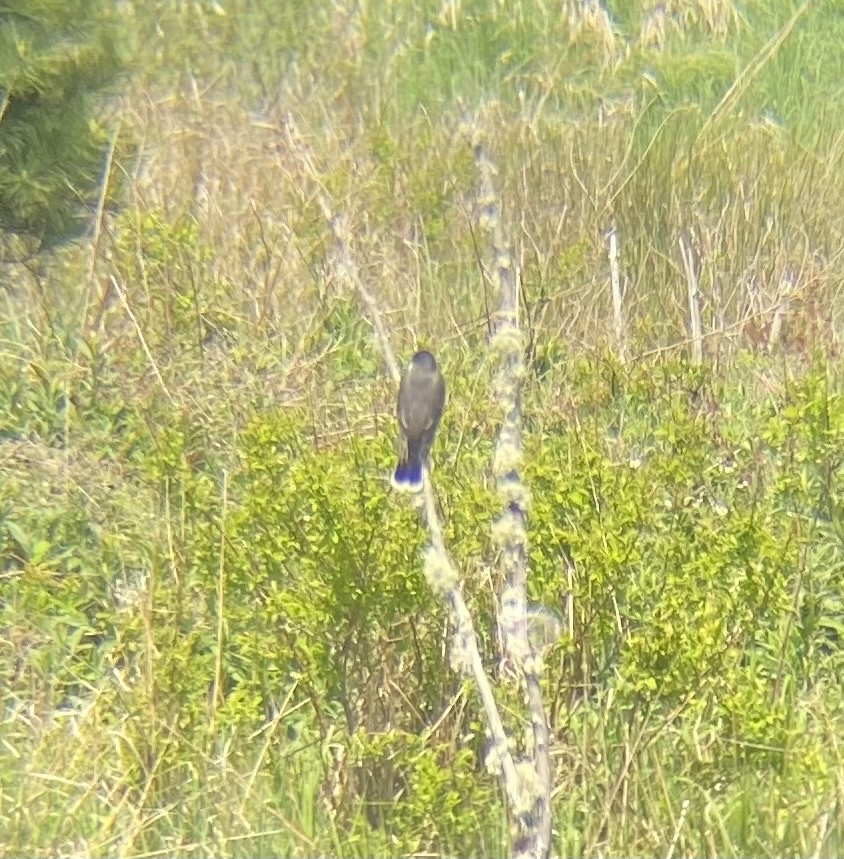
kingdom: Animalia
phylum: Chordata
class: Aves
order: Passeriformes
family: Tyrannidae
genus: Tyrannus
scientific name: Tyrannus tyrannus
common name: Eastern kingbird
